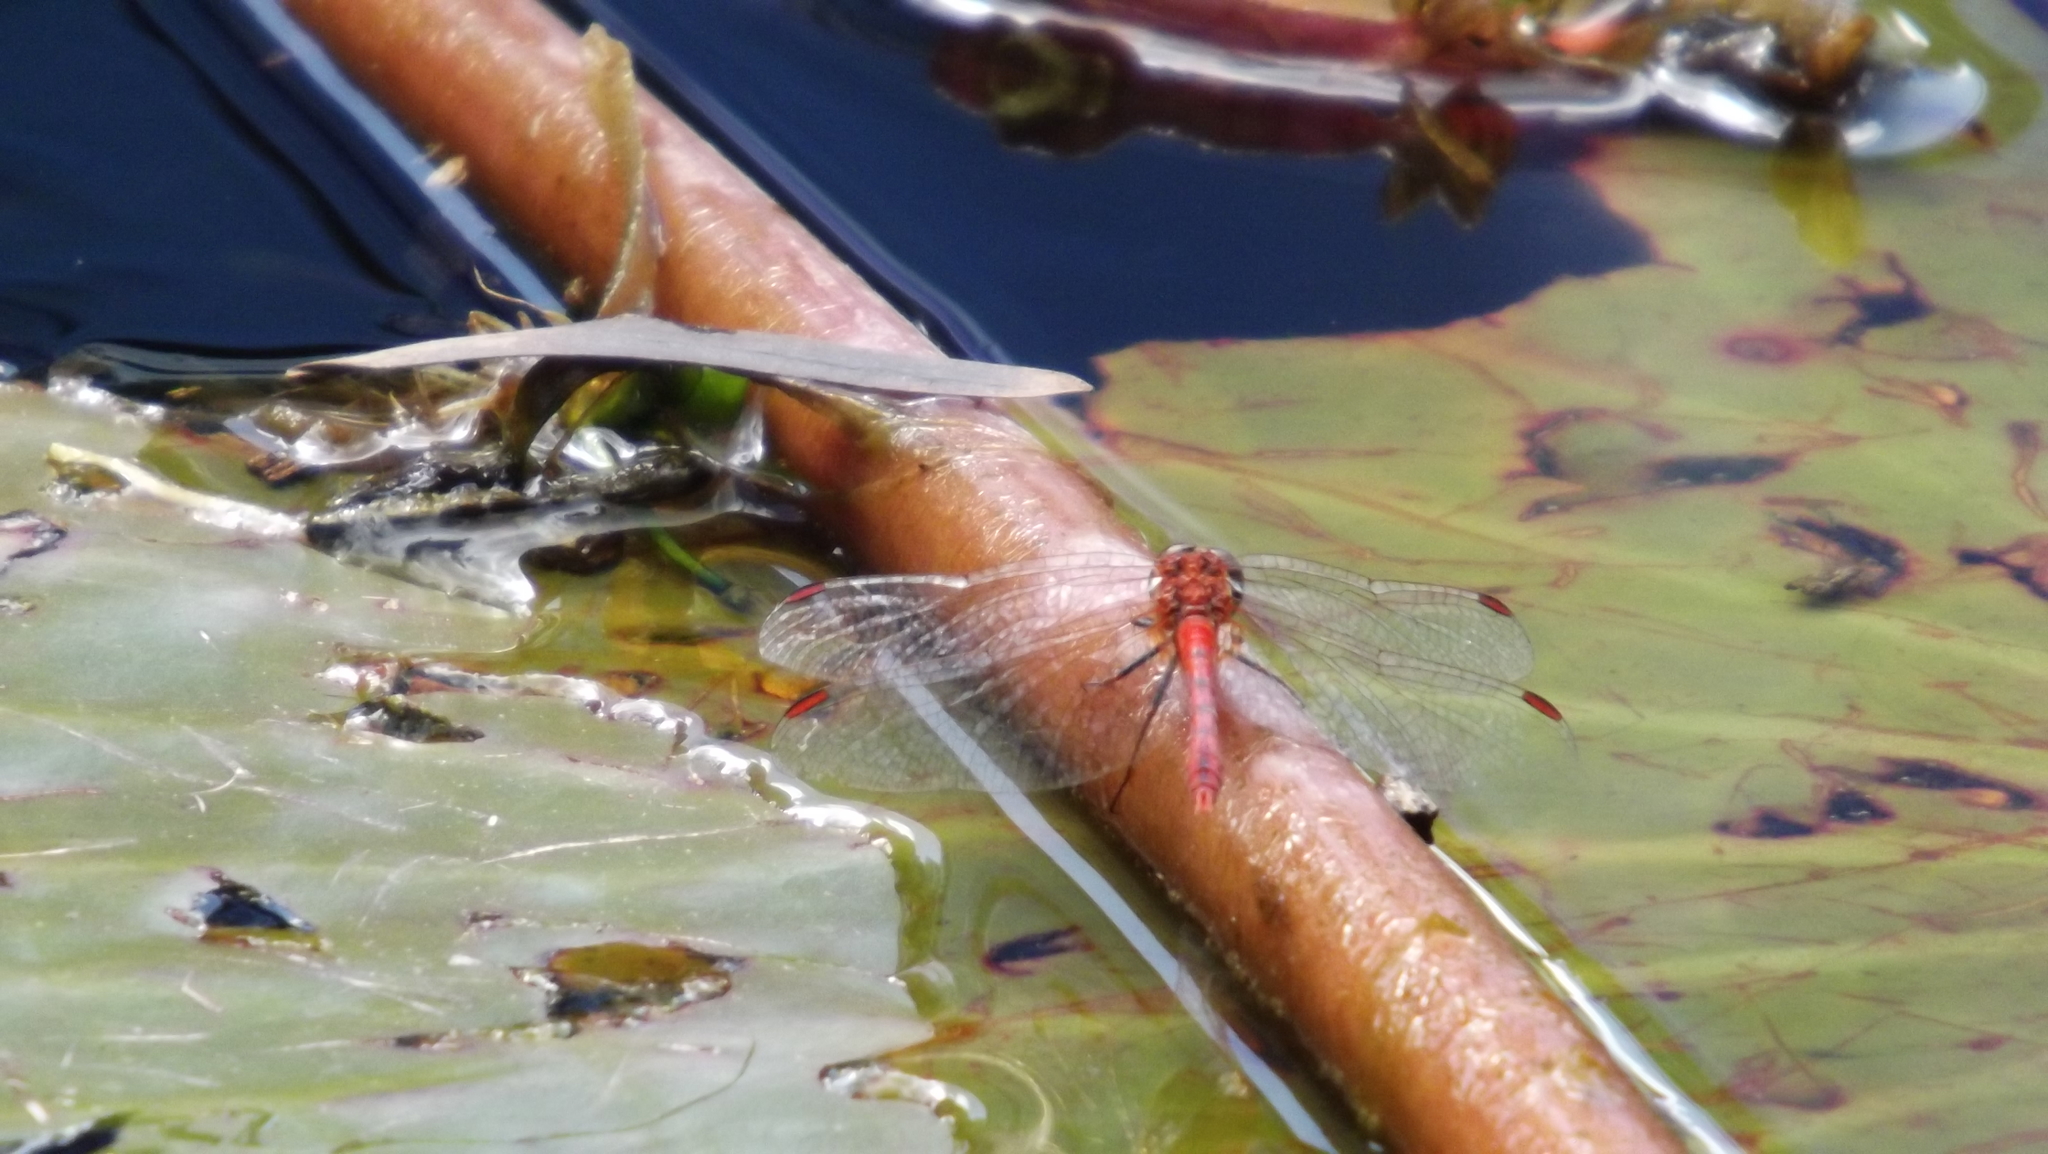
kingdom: Animalia
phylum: Arthropoda
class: Insecta
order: Odonata
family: Libellulidae
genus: Diplacodes
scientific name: Diplacodes bipunctata
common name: Red percher dragonfly
